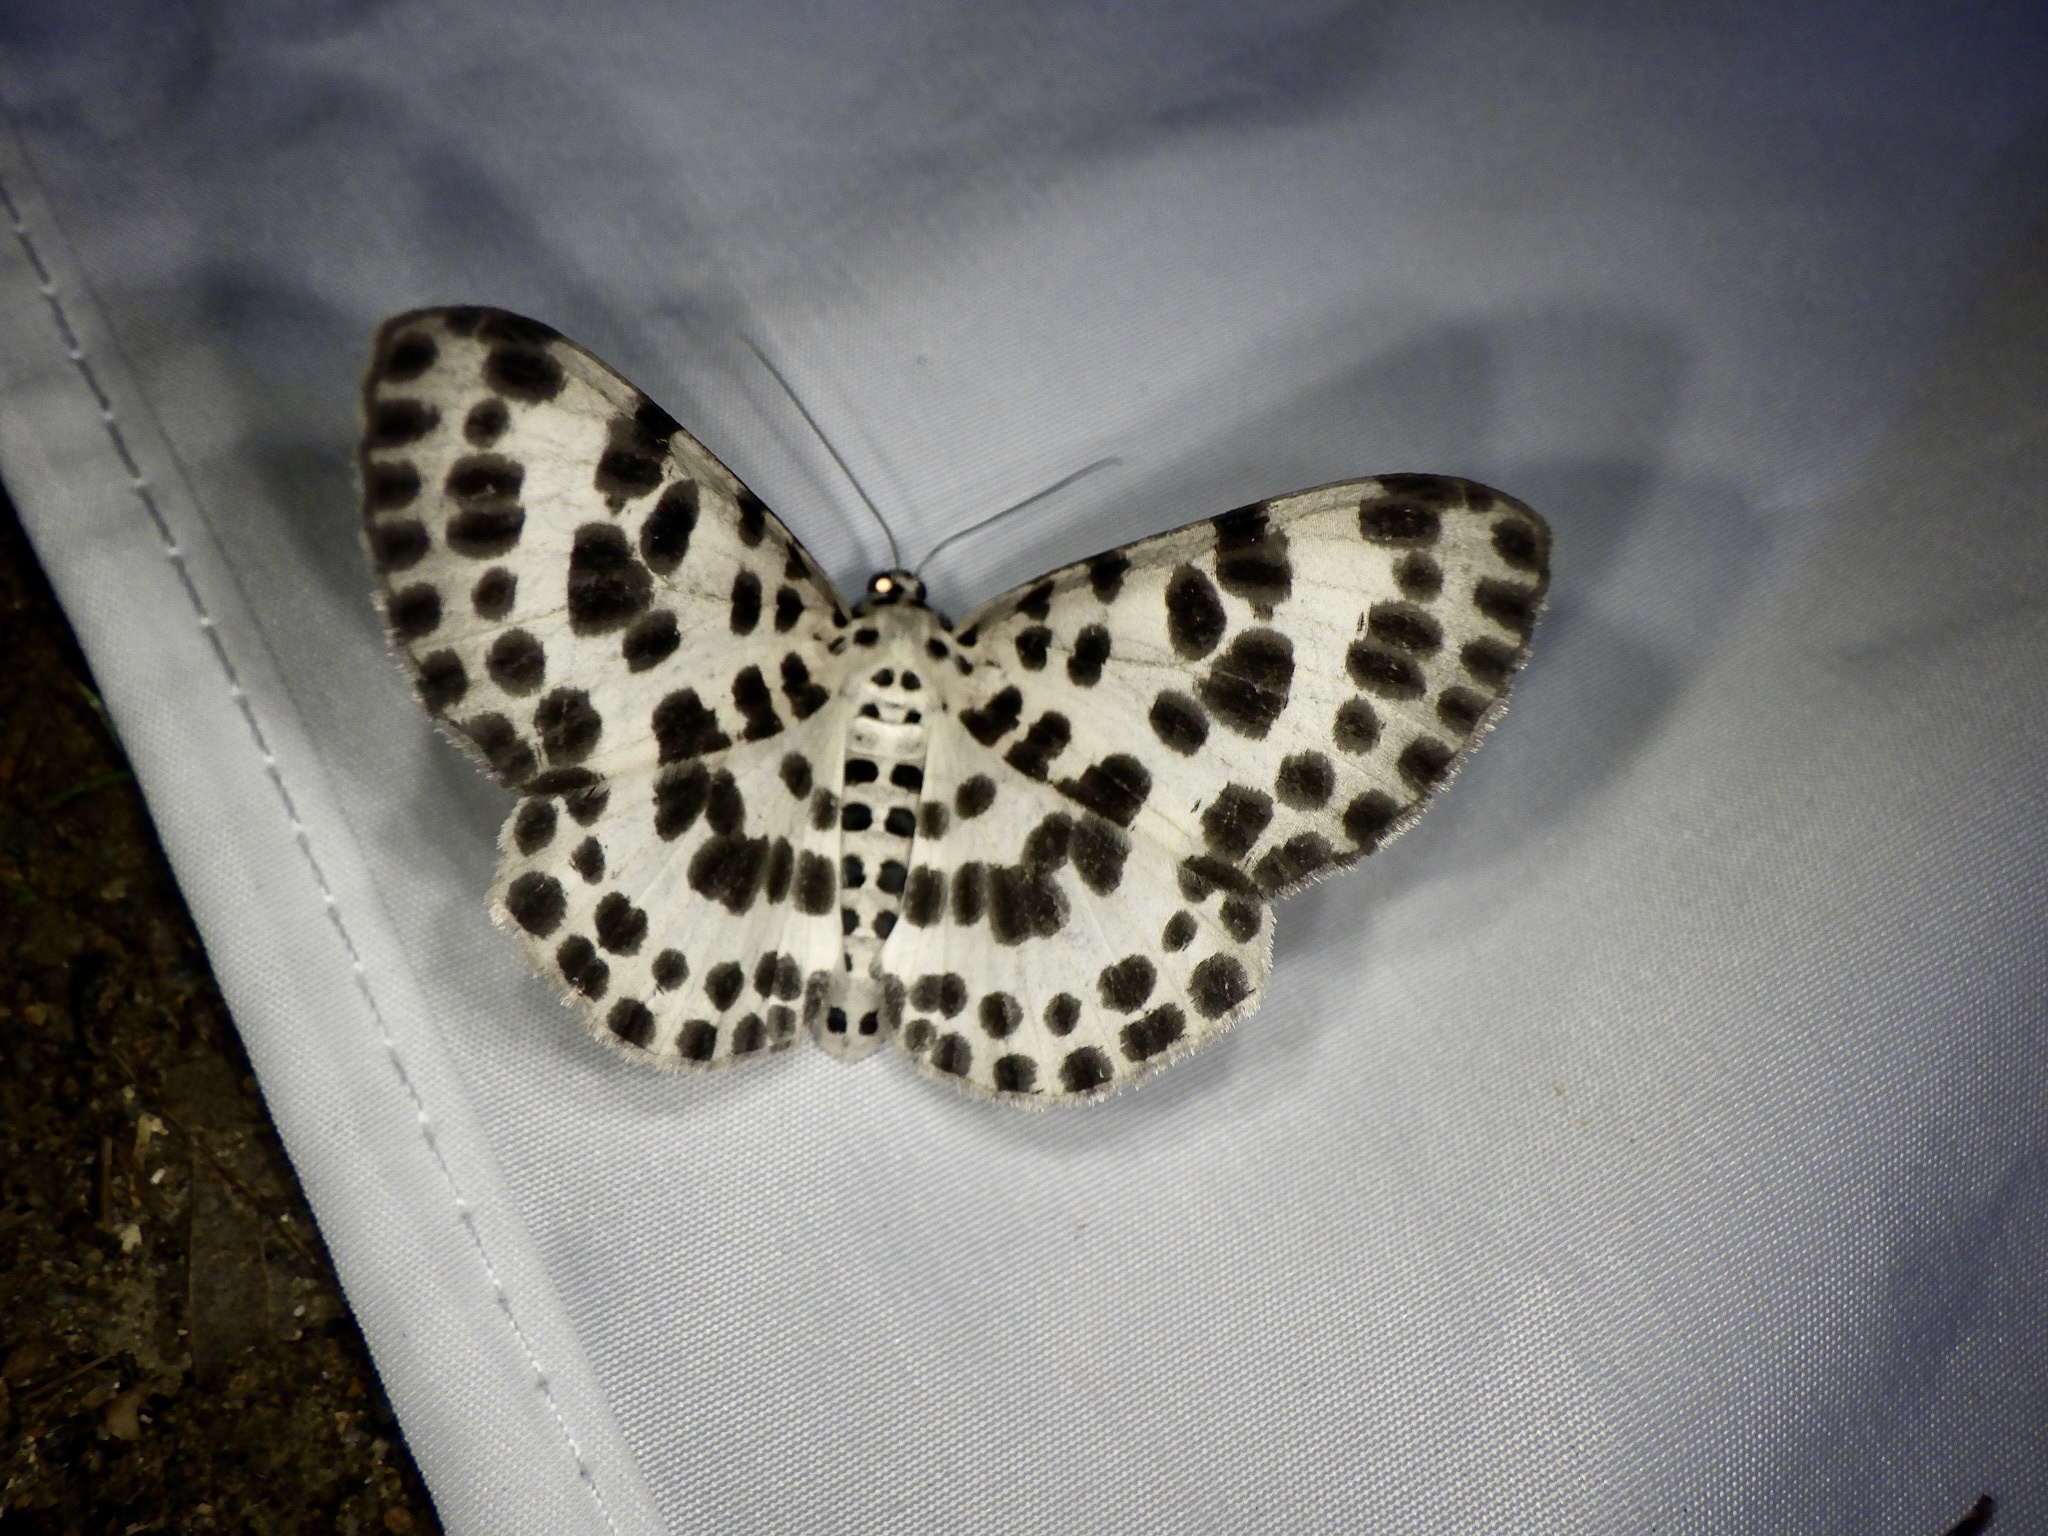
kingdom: Animalia
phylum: Arthropoda
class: Insecta
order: Lepidoptera
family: Geometridae
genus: Antipercnia
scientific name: Antipercnia albinigrata
